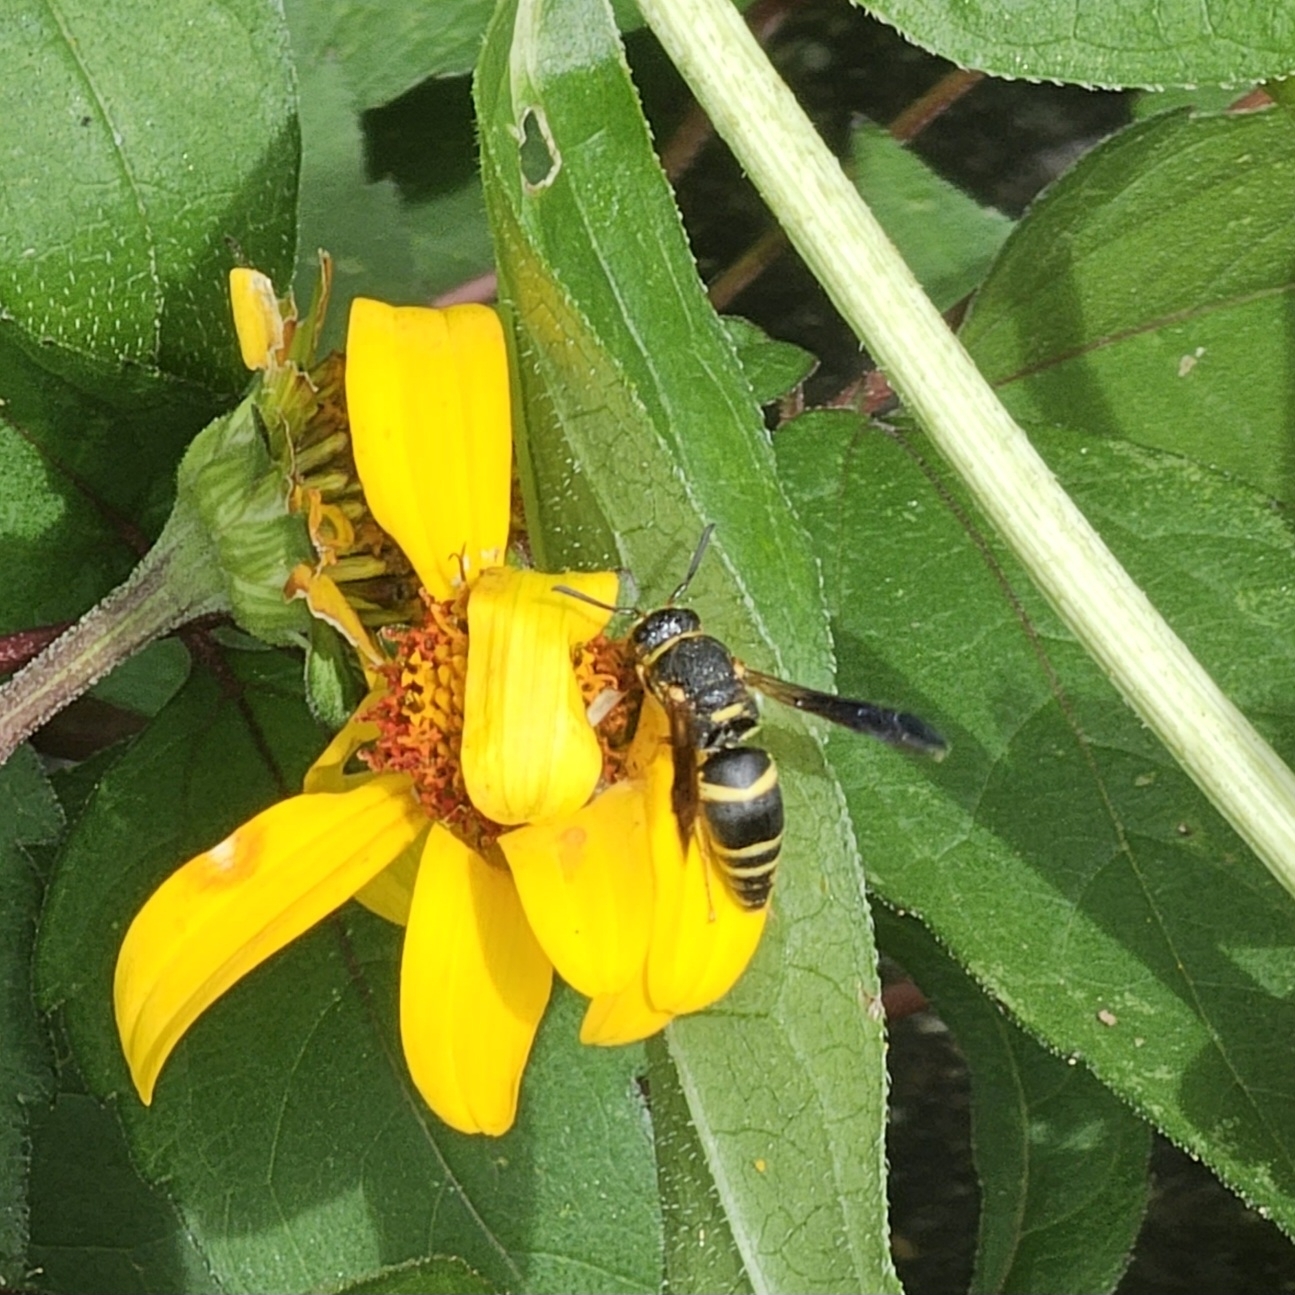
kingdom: Animalia
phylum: Arthropoda
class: Insecta
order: Hymenoptera
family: Eumenidae
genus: Euodynerus
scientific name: Euodynerus foraminatus
